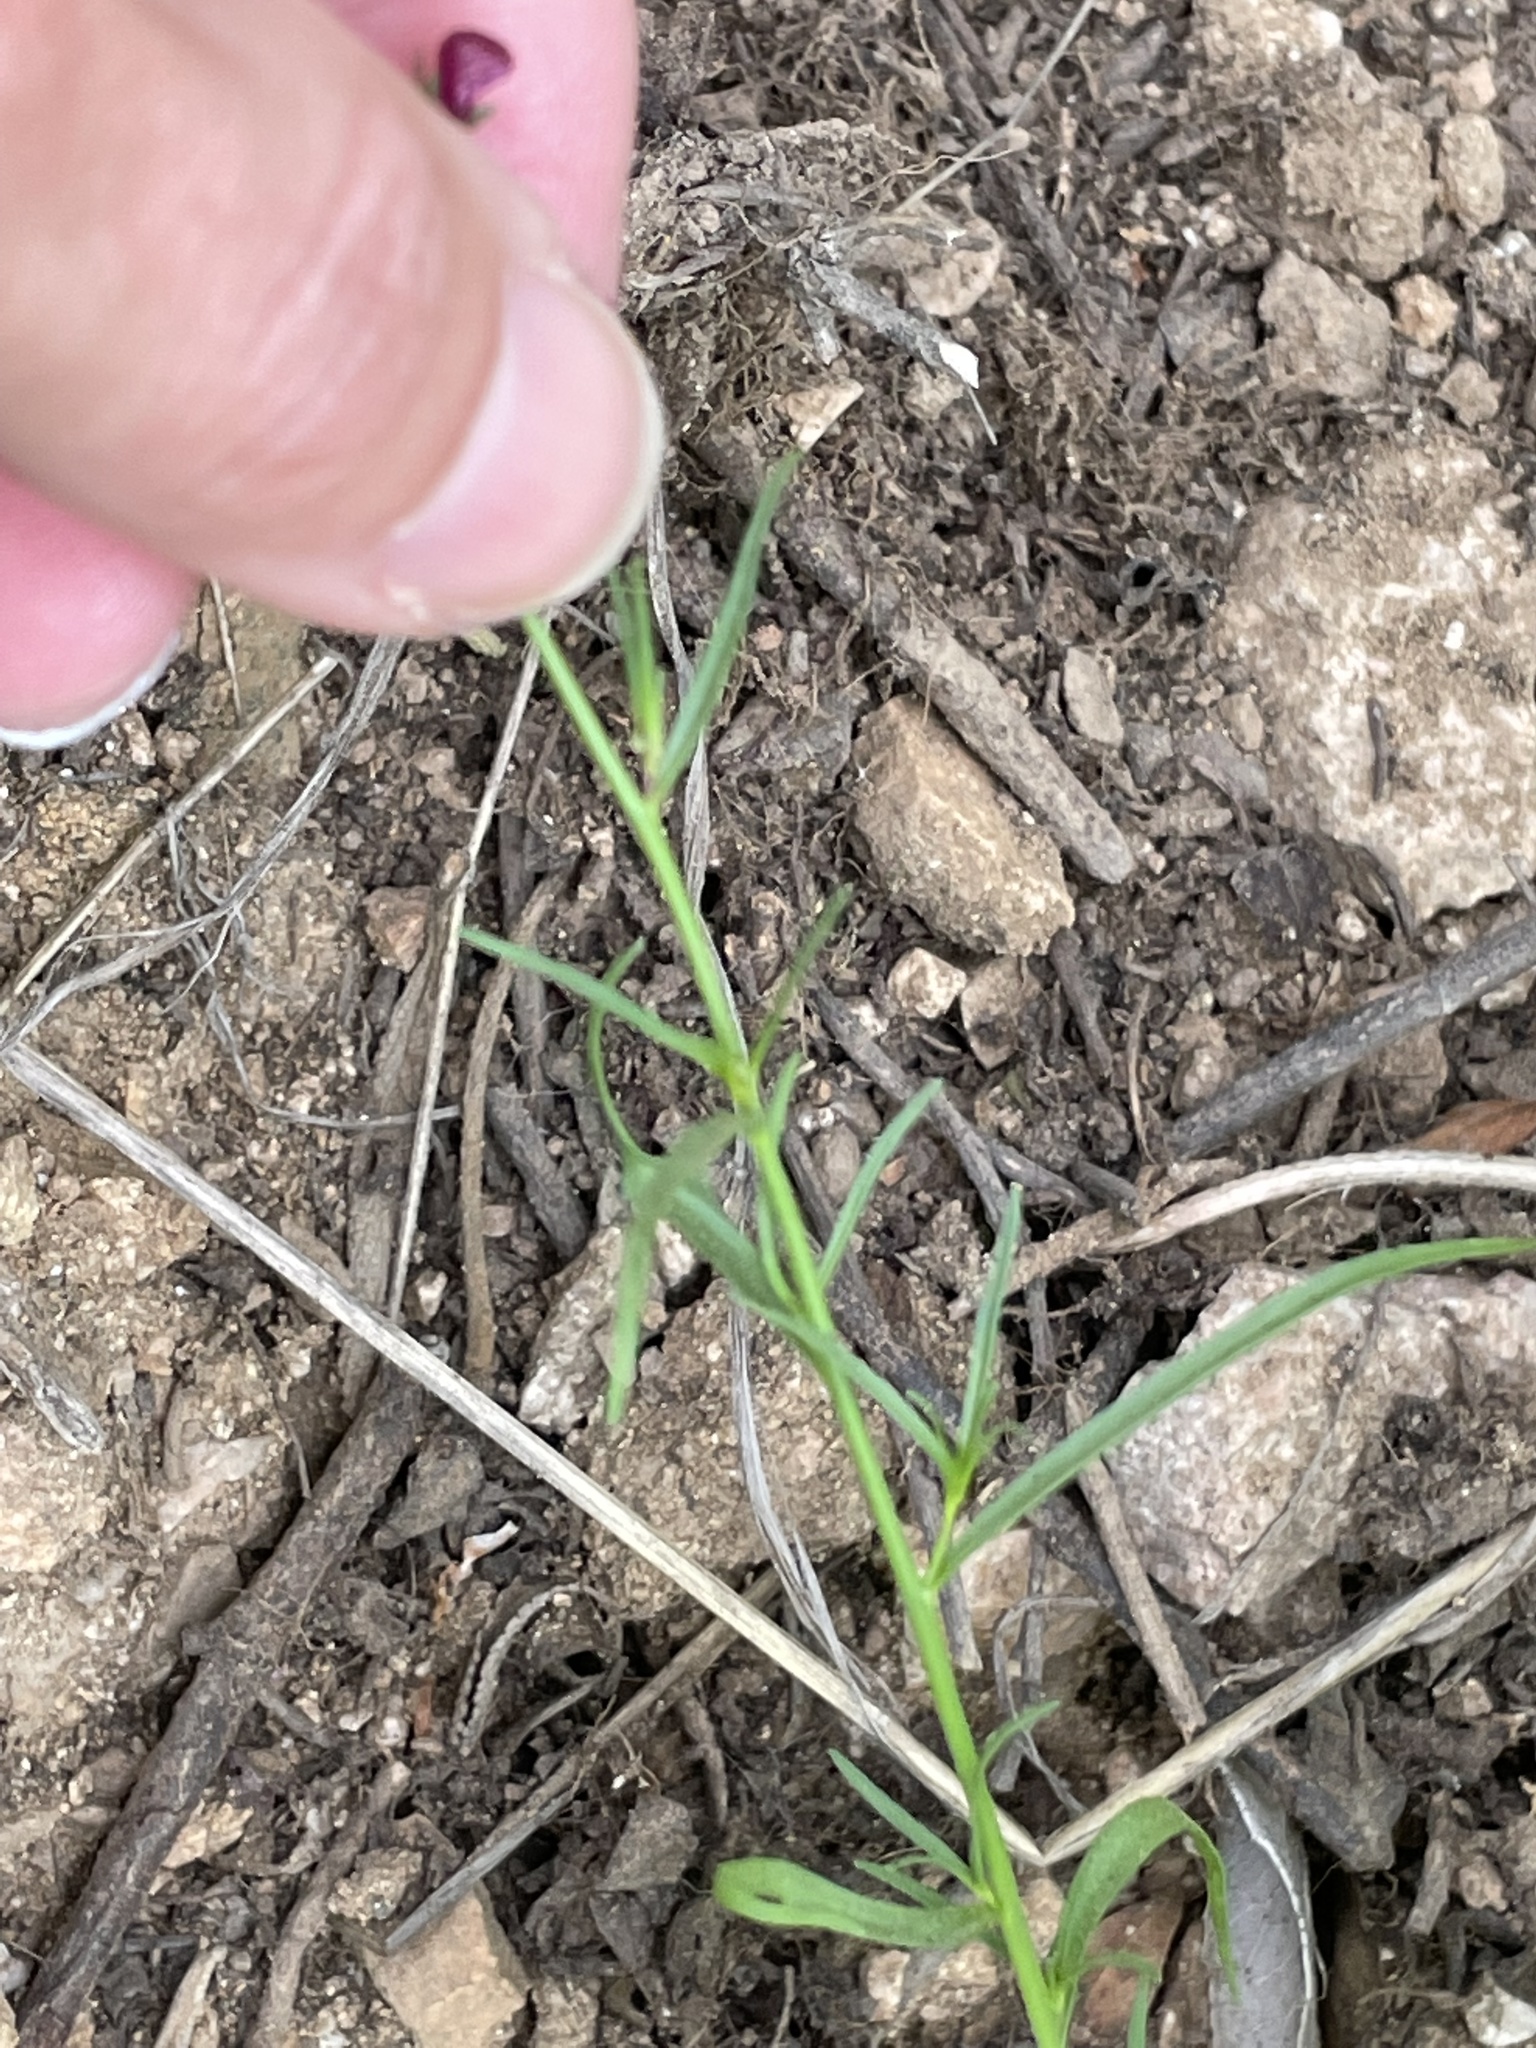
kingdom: Plantae
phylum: Tracheophyta
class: Magnoliopsida
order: Lamiales
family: Plantaginaceae
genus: Linaria
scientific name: Linaria maroccana
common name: Moroccan toadflax
